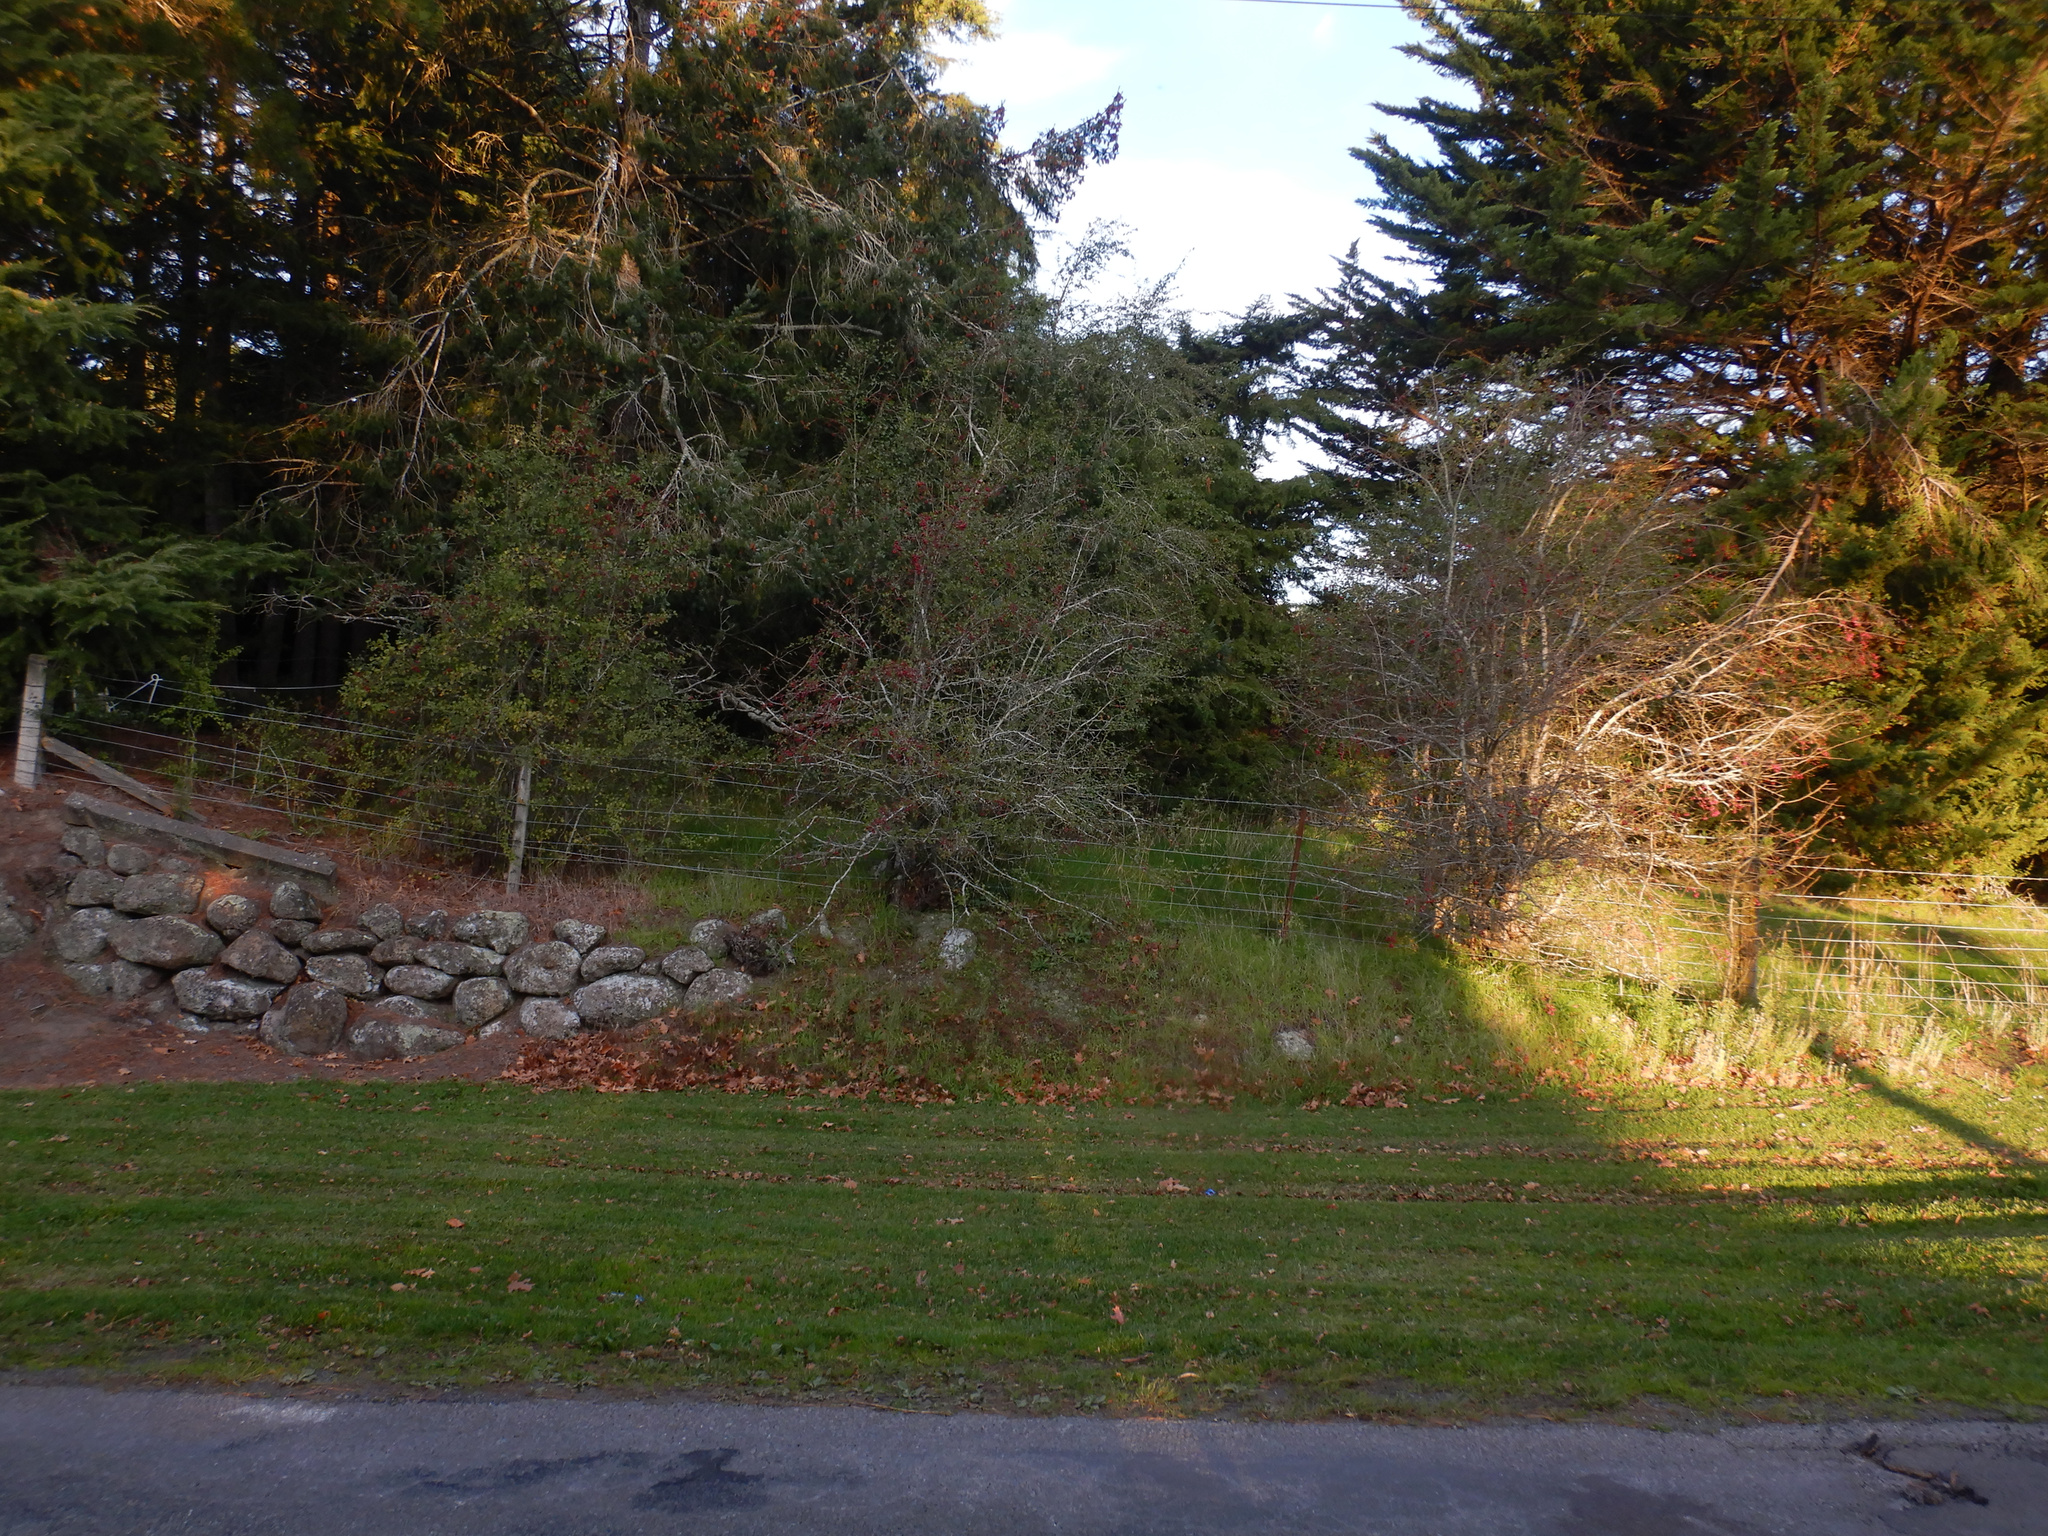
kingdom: Plantae
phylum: Tracheophyta
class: Magnoliopsida
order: Rosales
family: Rosaceae
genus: Crataegus
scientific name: Crataegus monogyna
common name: Hawthorn
